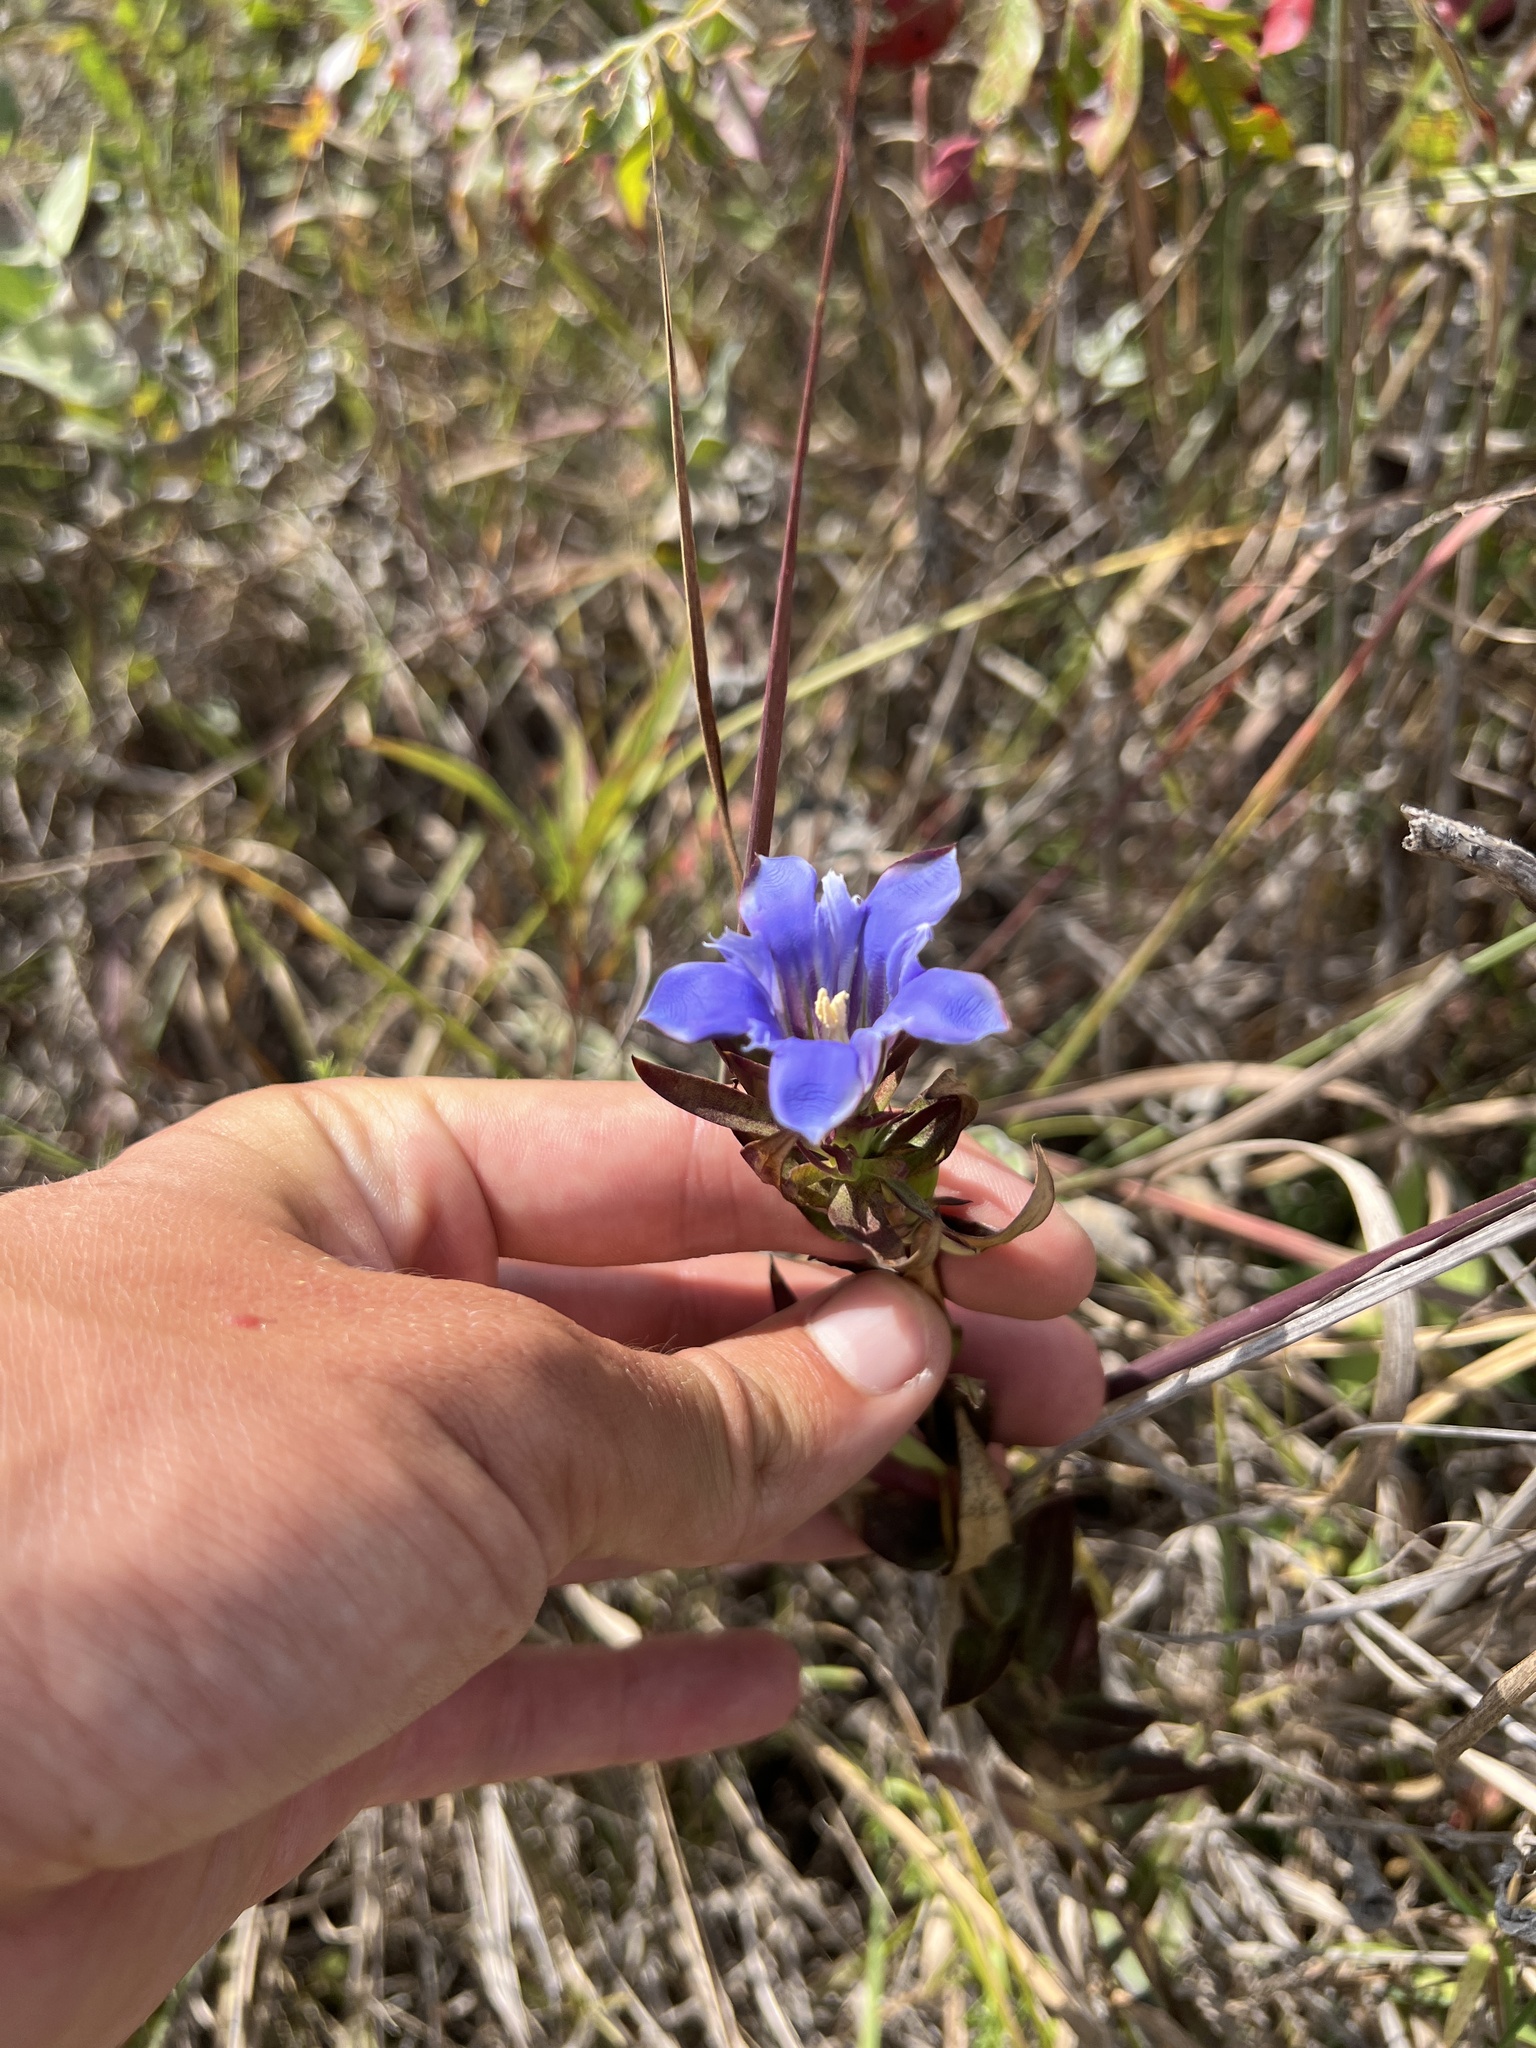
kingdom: Plantae
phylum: Tracheophyta
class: Magnoliopsida
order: Gentianales
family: Gentianaceae
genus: Gentiana
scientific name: Gentiana puberulenta
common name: Downy gentian
